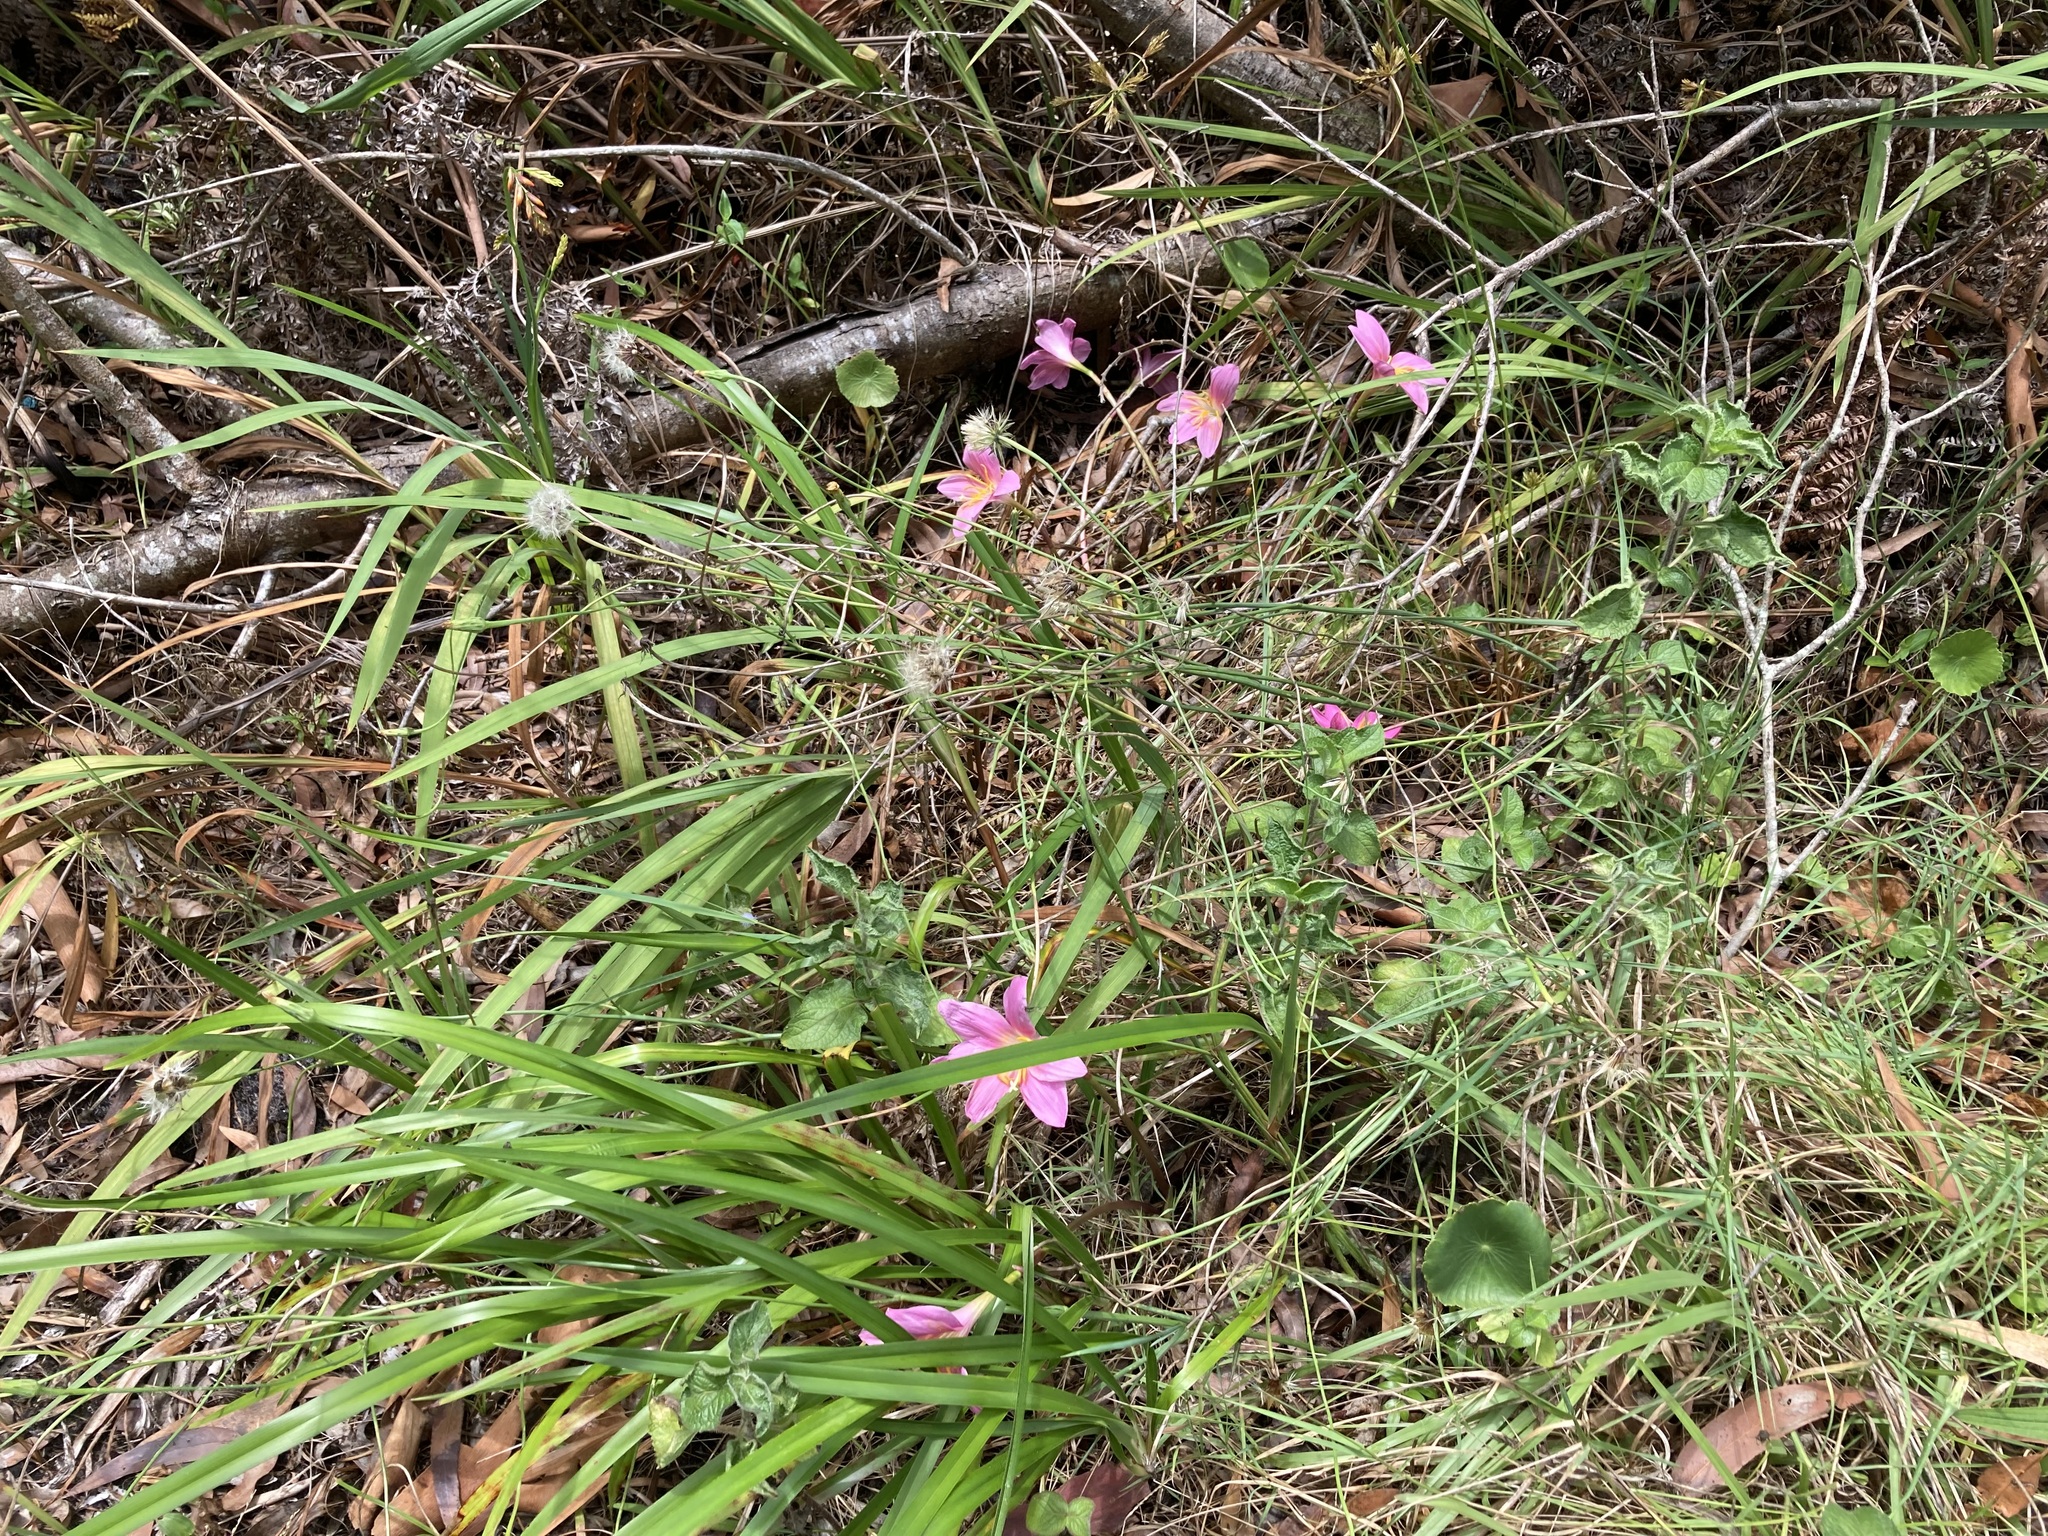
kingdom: Plantae
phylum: Tracheophyta
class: Liliopsida
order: Asparagales
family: Amaryllidaceae
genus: Zephyranthes
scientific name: Zephyranthes carinata
